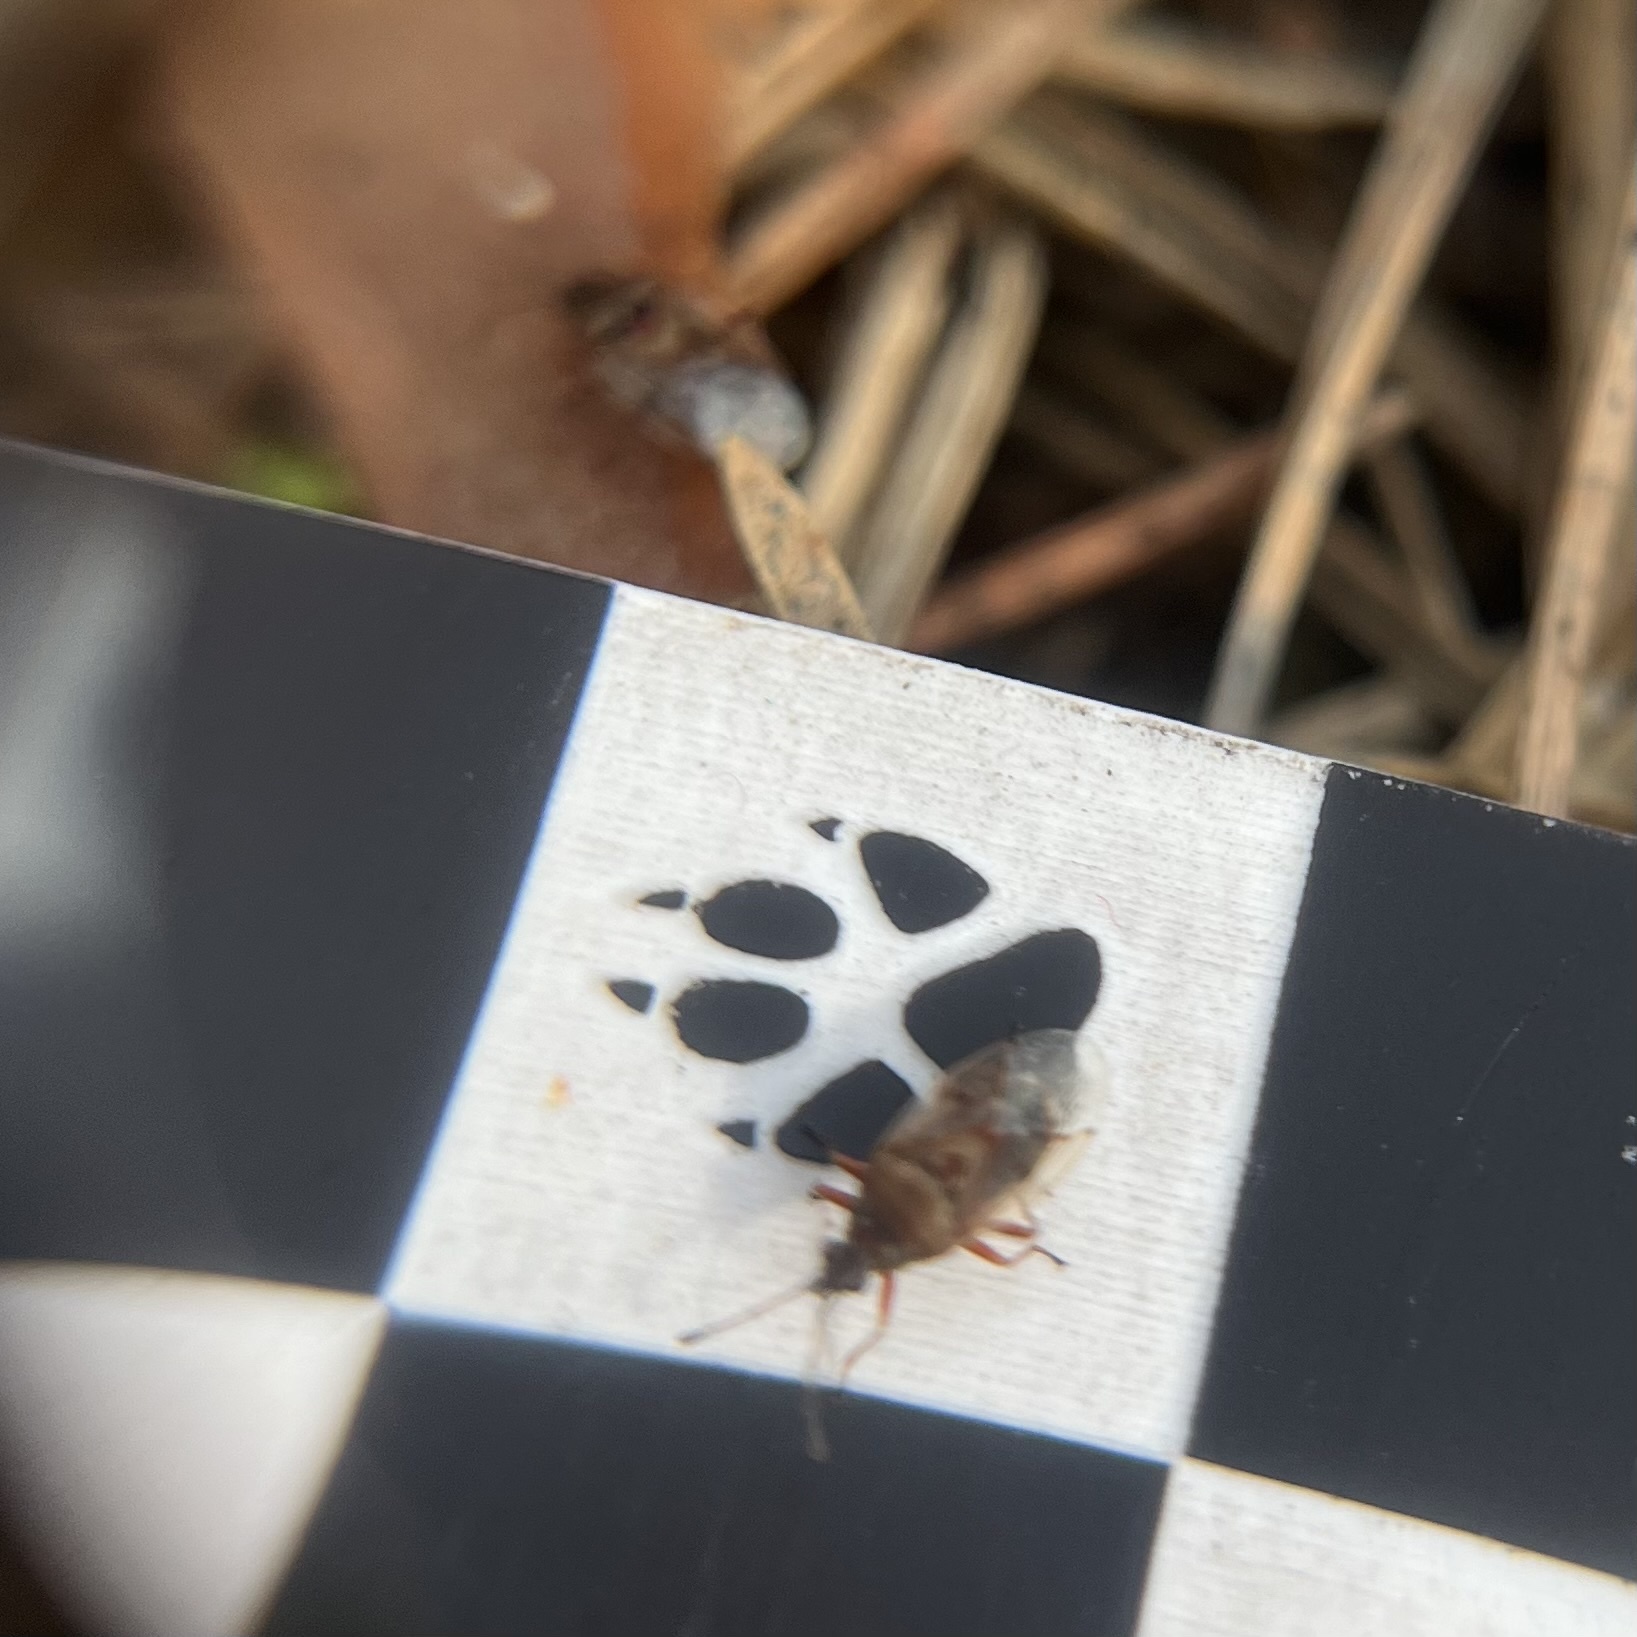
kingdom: Animalia
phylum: Arthropoda
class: Insecta
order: Hemiptera
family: Lygaeidae
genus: Kleidocerys
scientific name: Kleidocerys resedae
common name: Birch catkin bug
